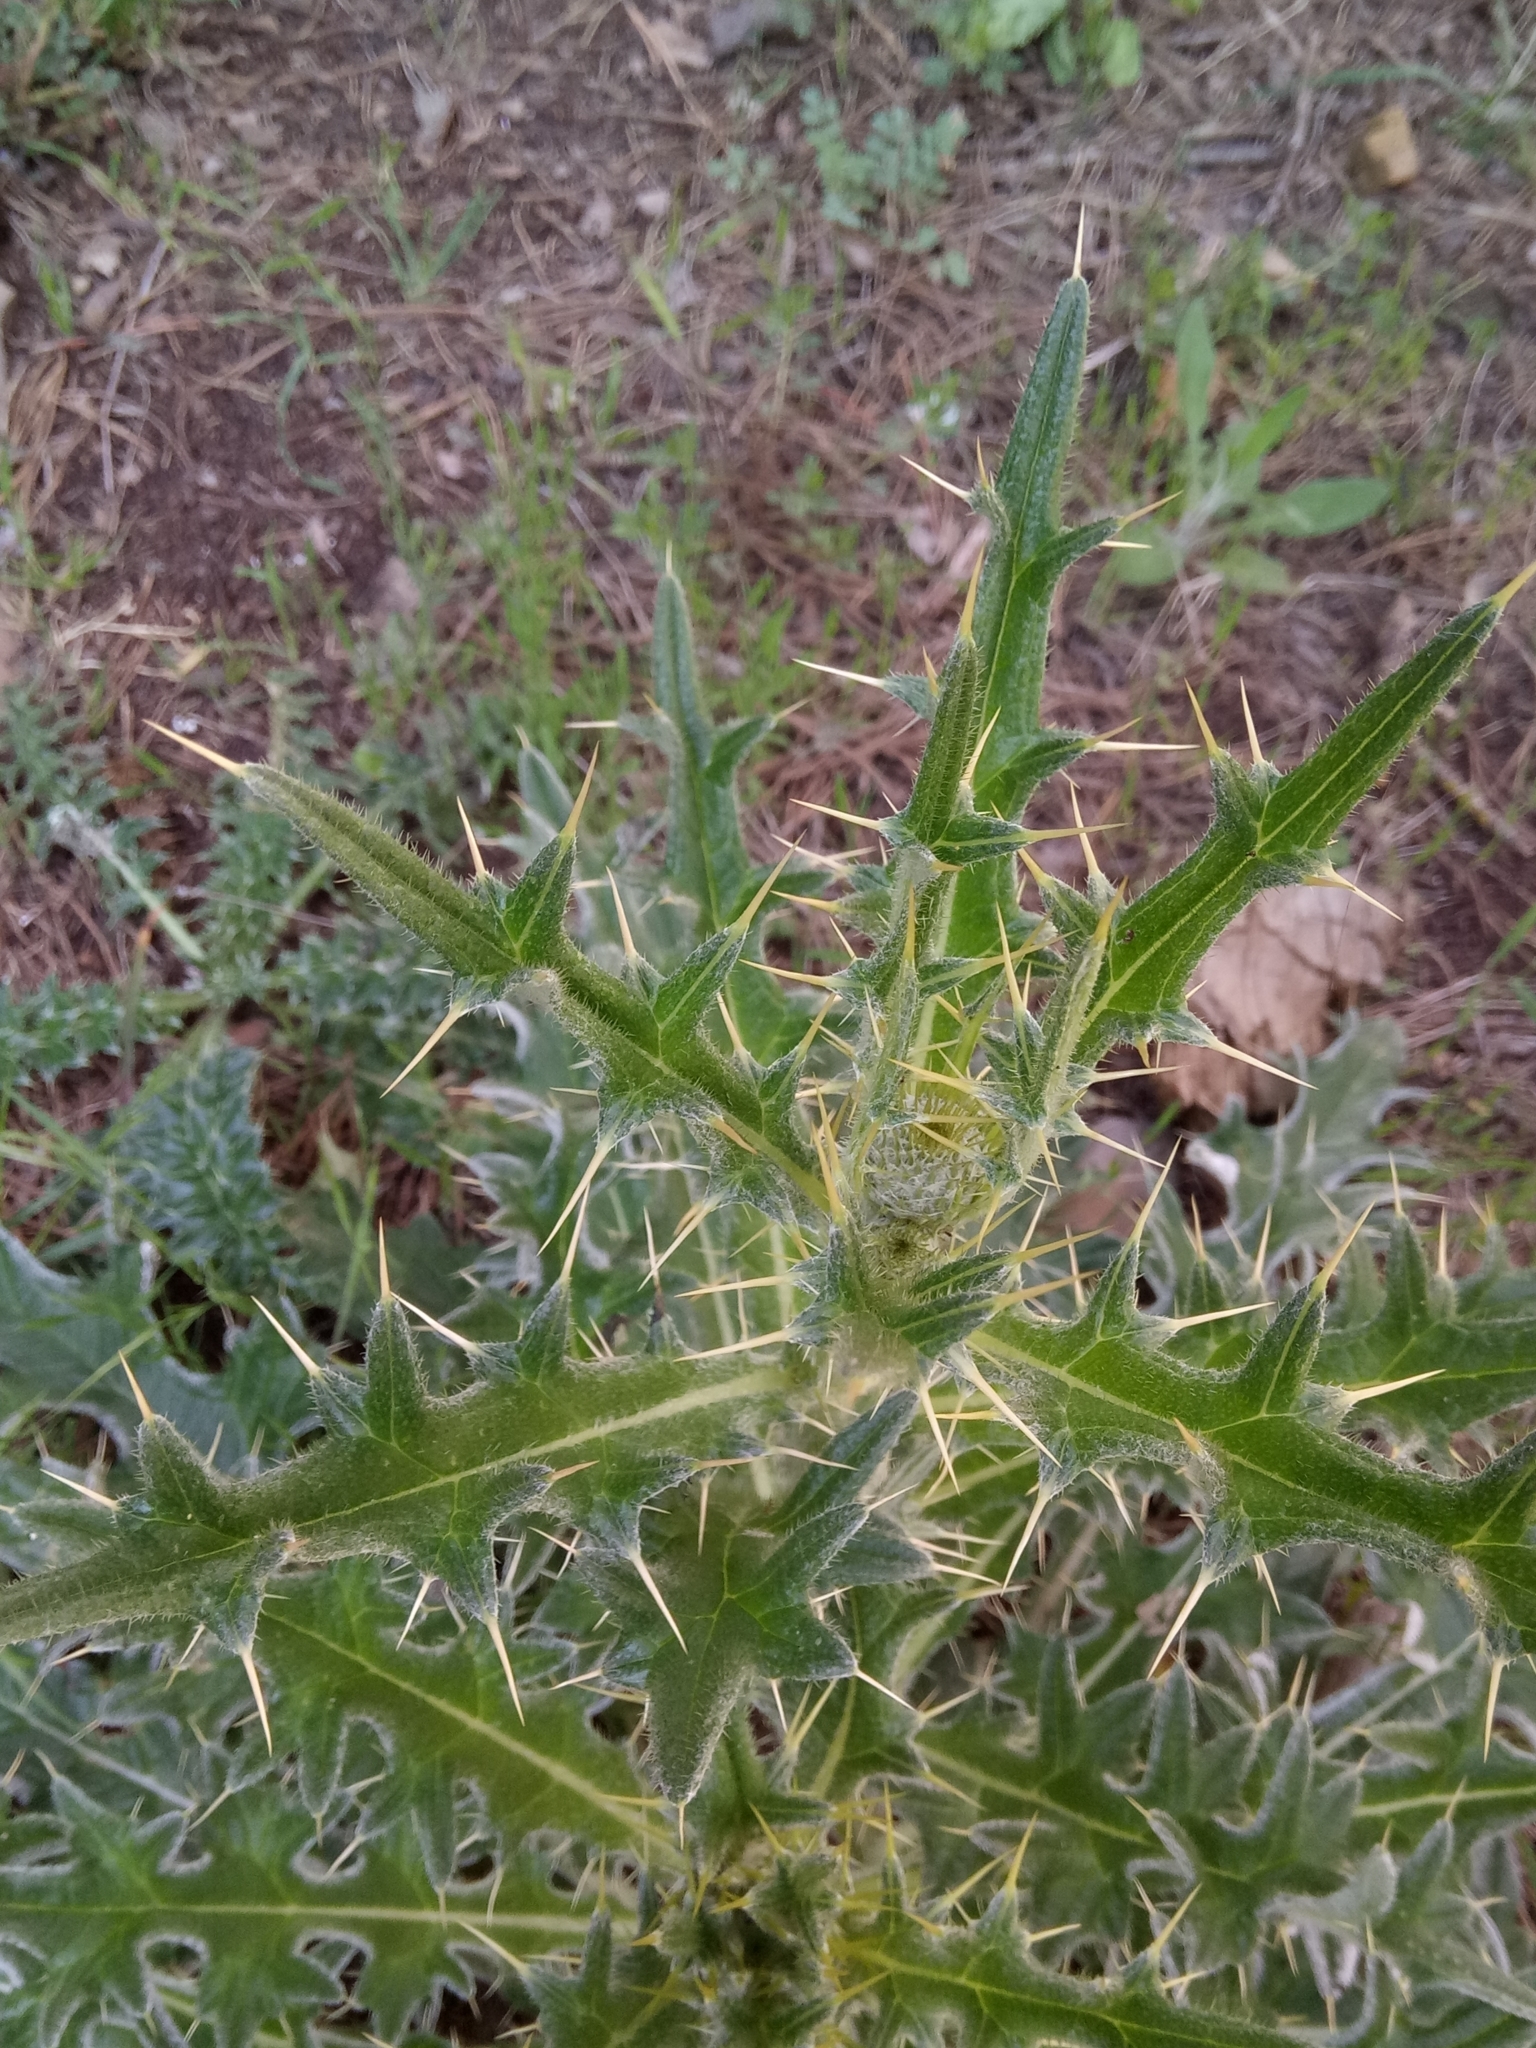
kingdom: Plantae
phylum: Tracheophyta
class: Magnoliopsida
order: Asterales
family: Asteraceae
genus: Lophiolepis
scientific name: Lophiolepis echinata
